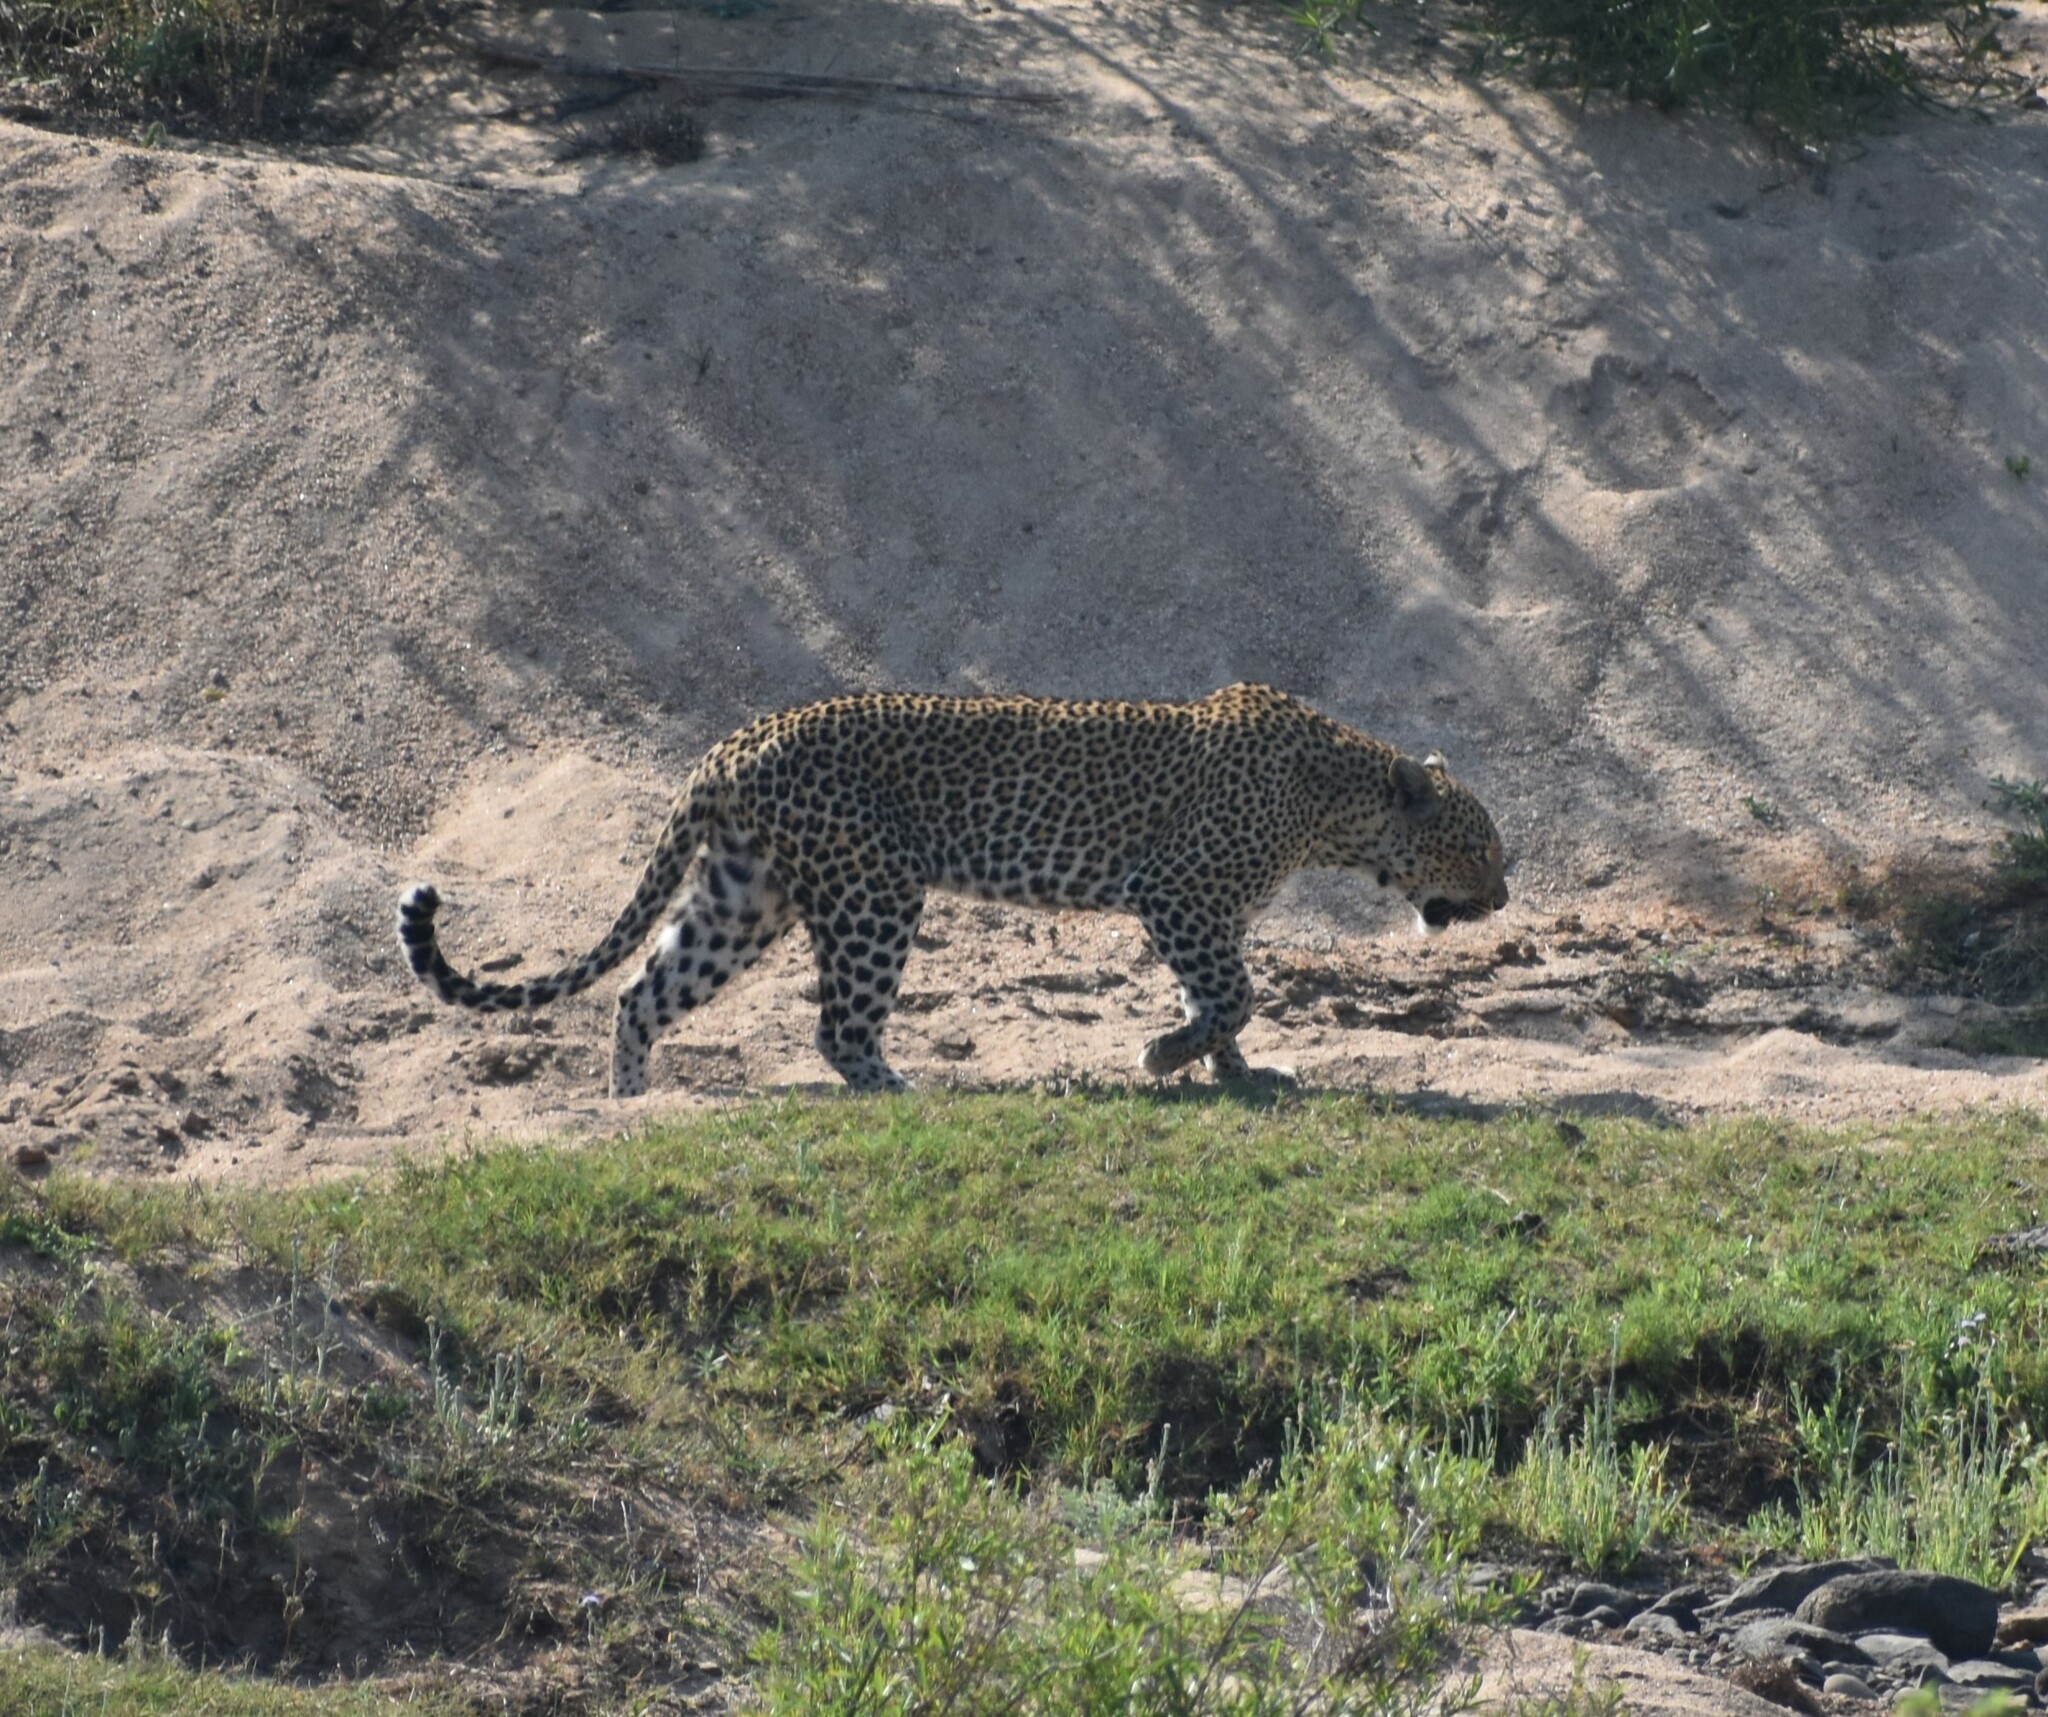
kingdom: Animalia
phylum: Chordata
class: Mammalia
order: Carnivora
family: Felidae
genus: Panthera
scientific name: Panthera pardus
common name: Leopard
